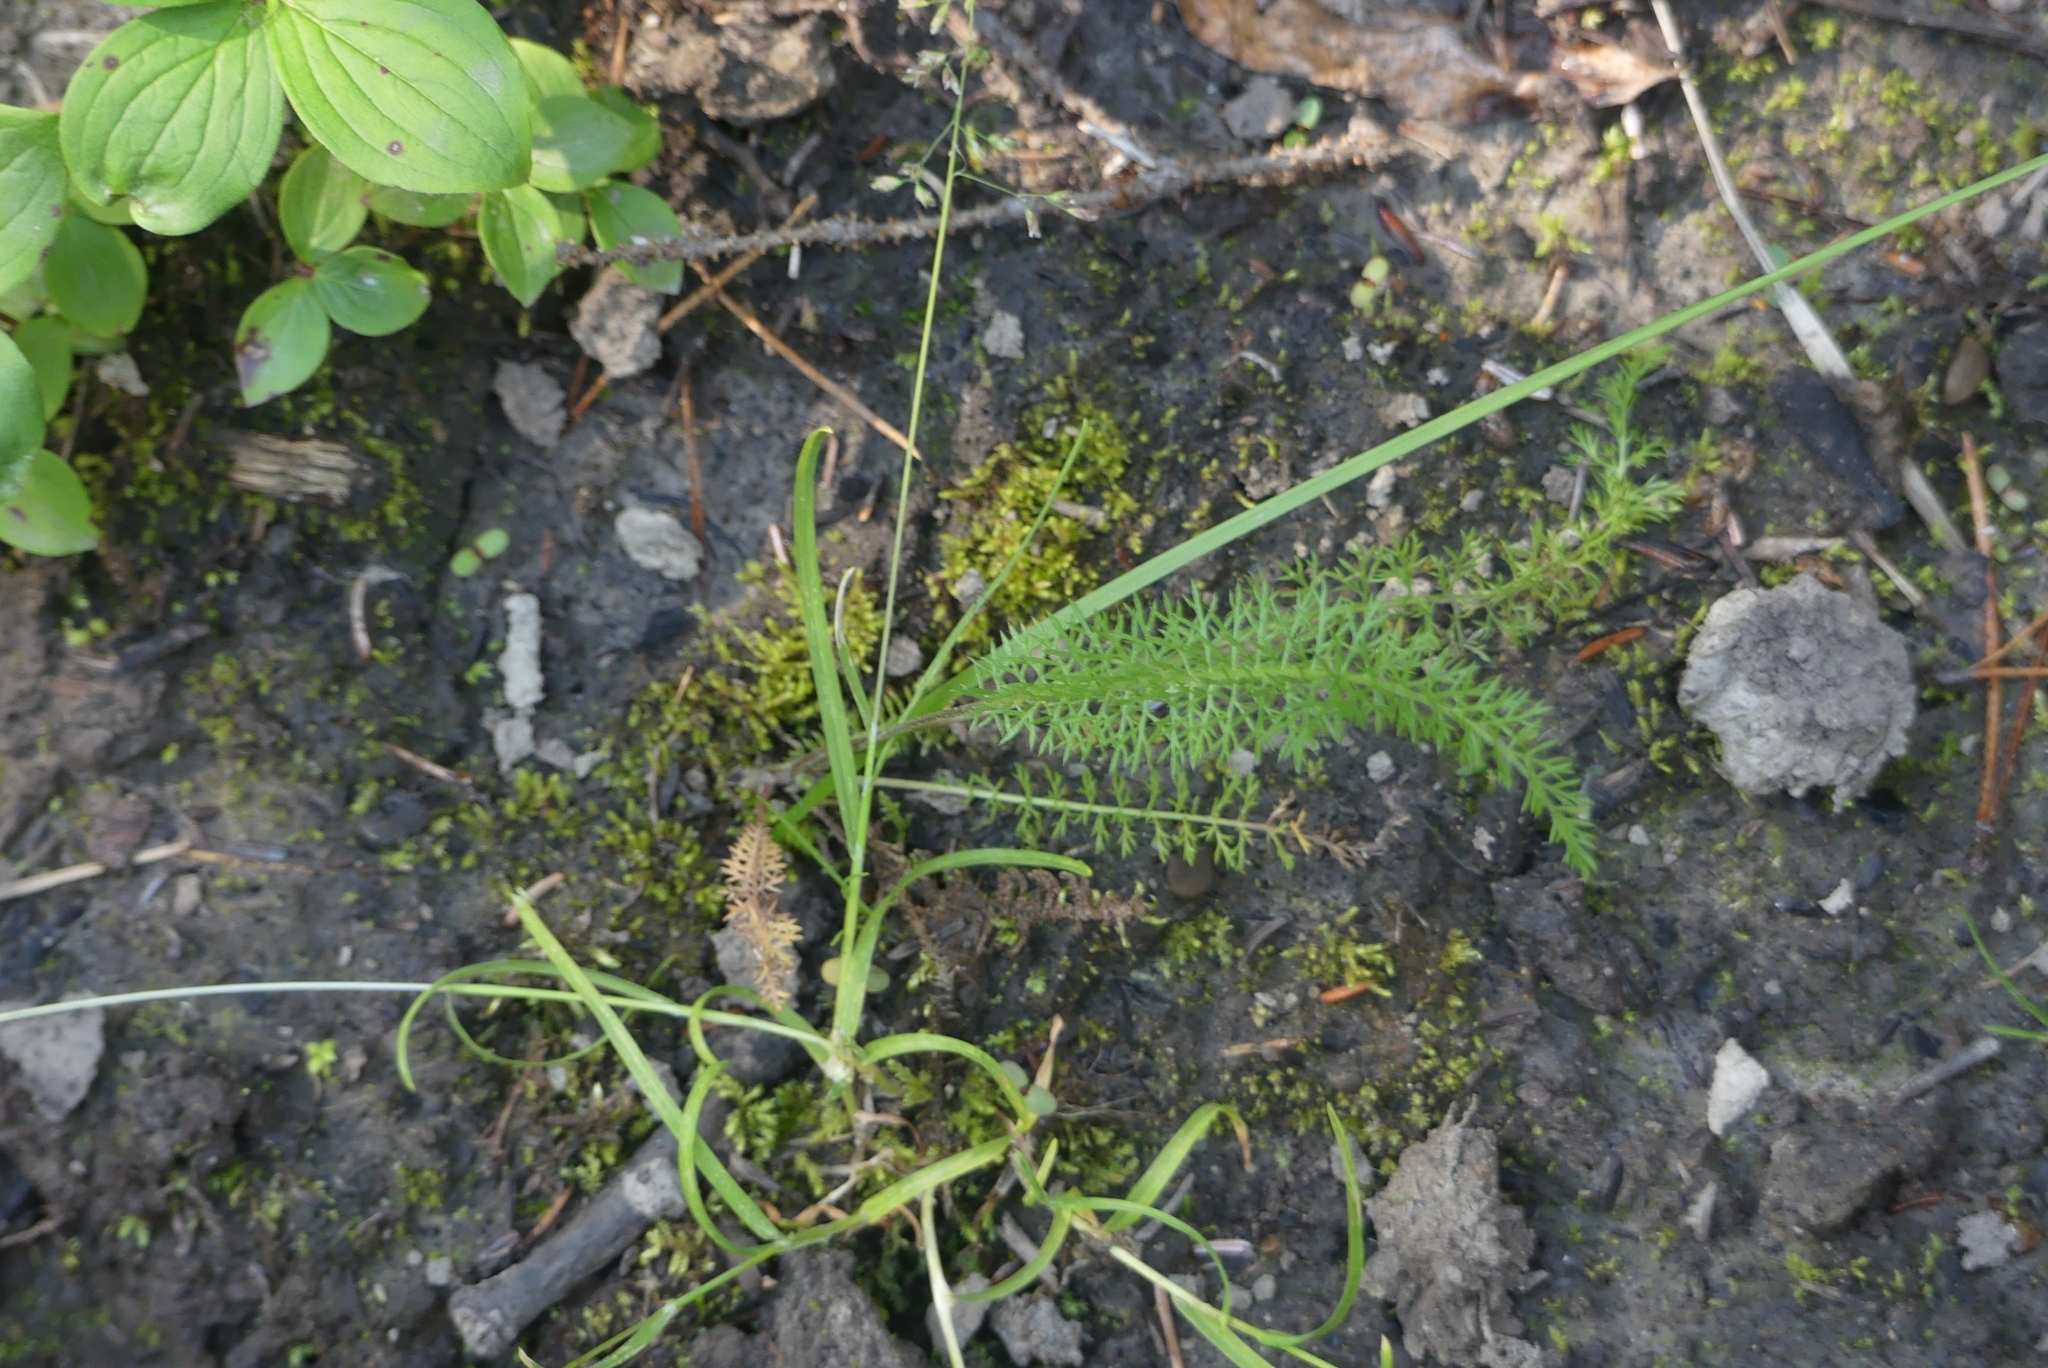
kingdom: Plantae
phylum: Tracheophyta
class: Magnoliopsida
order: Asterales
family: Asteraceae
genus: Achillea
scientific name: Achillea millefolium
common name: Yarrow
